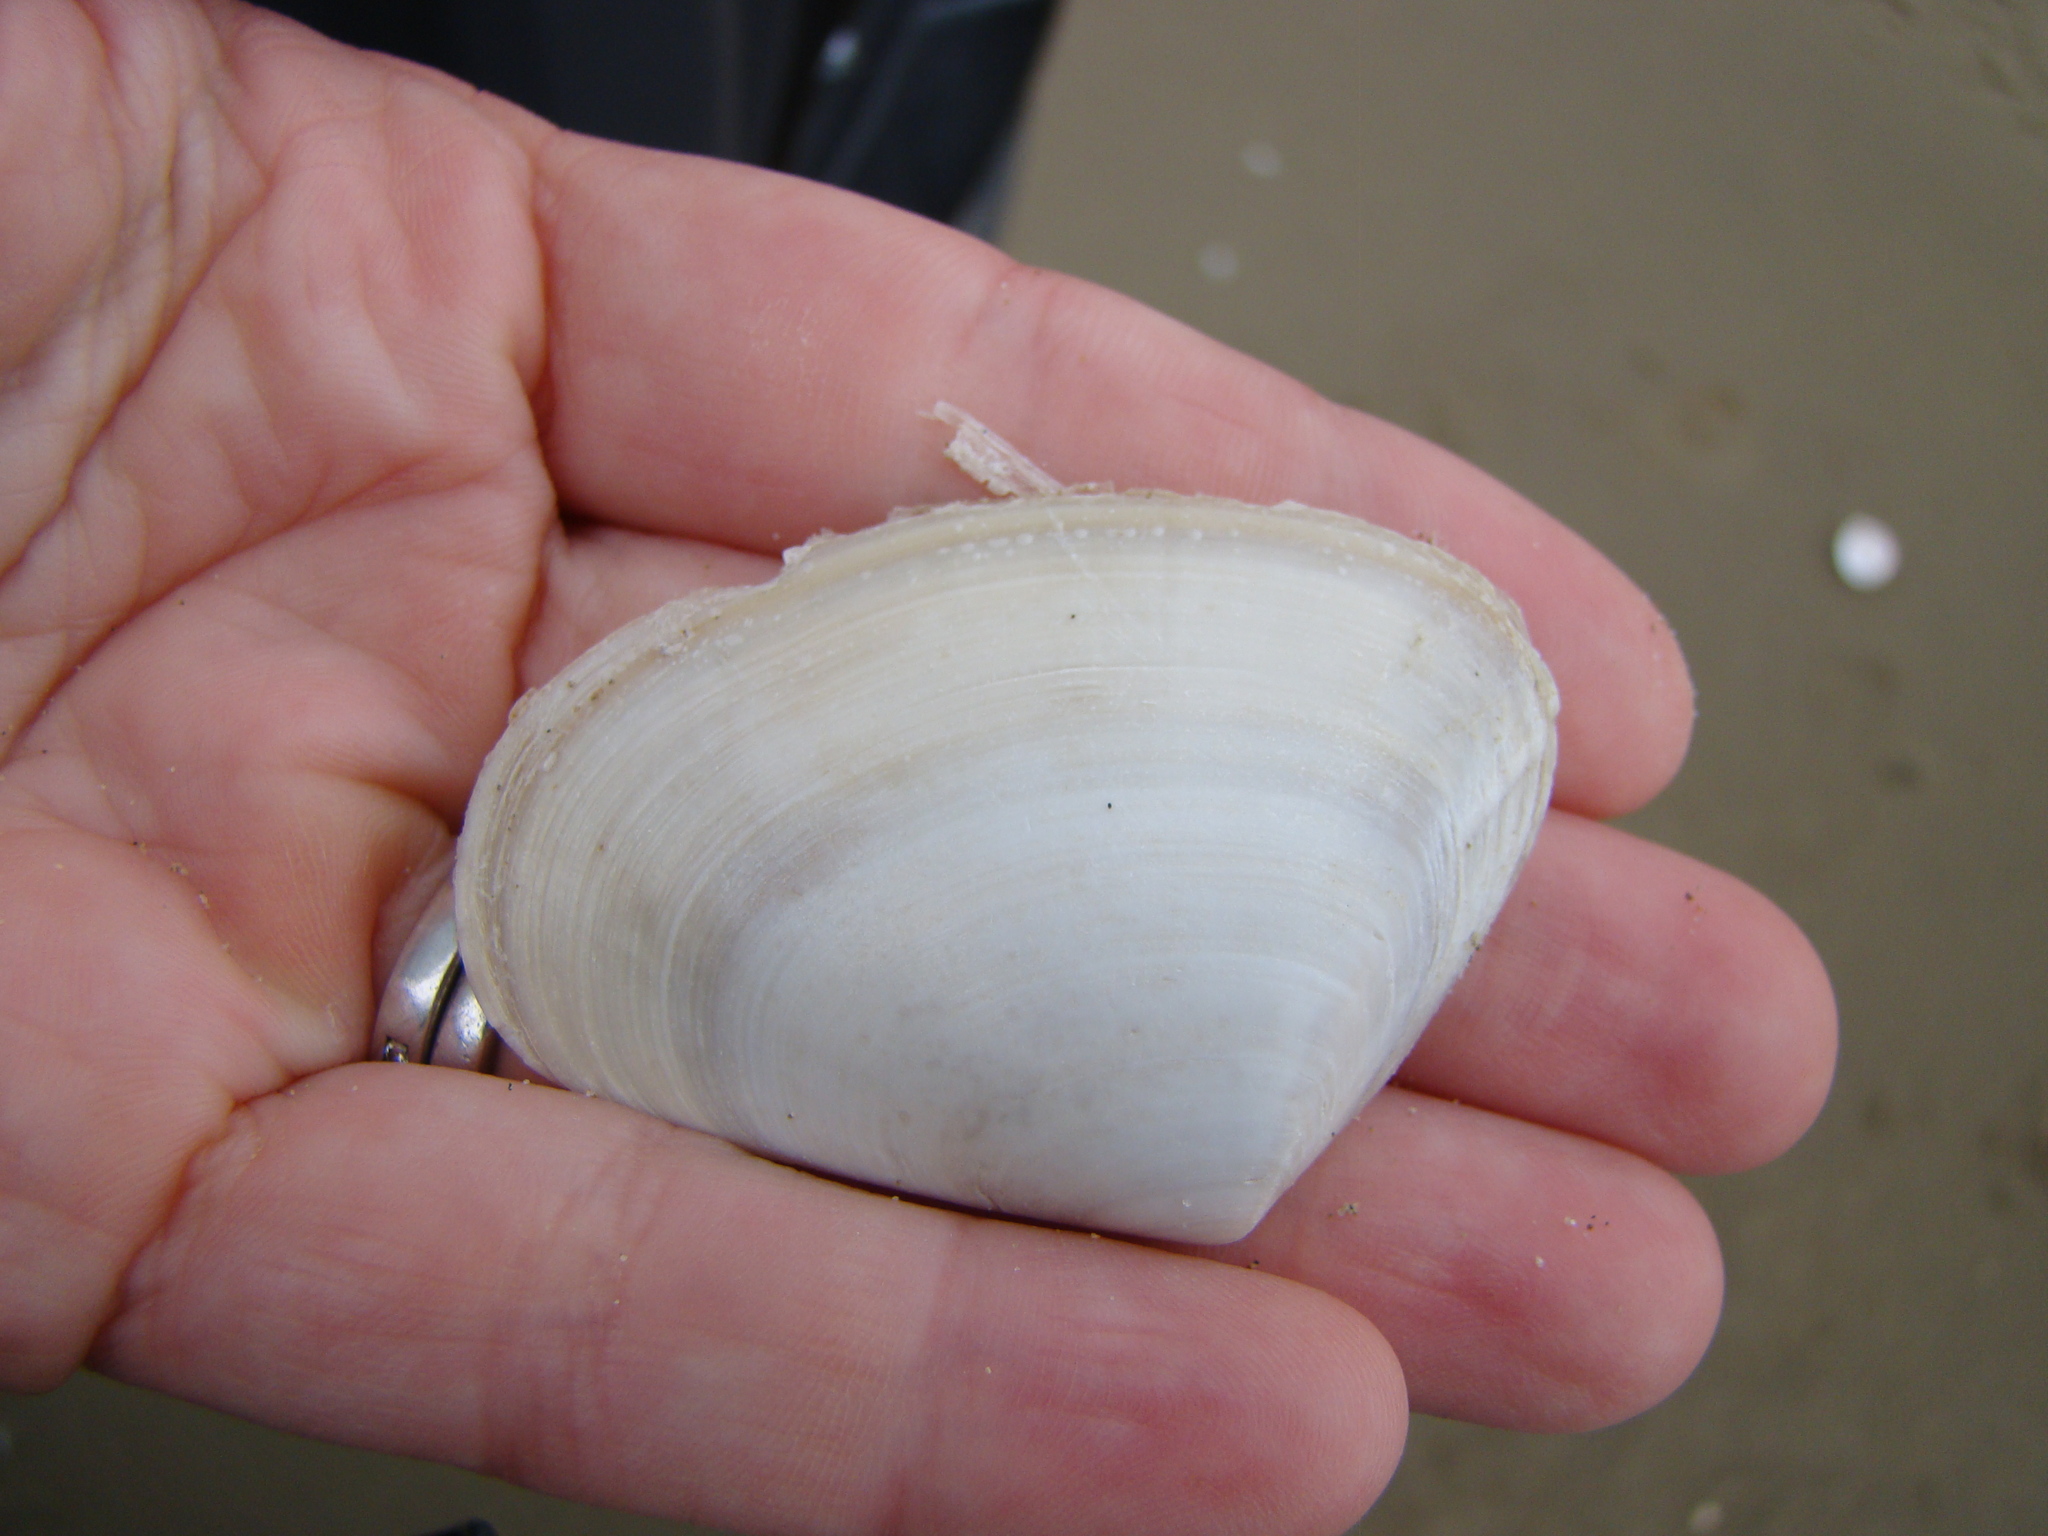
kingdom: Animalia
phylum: Mollusca
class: Bivalvia
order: Venerida
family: Mesodesmatidae
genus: Paphies
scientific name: Paphies donacina
